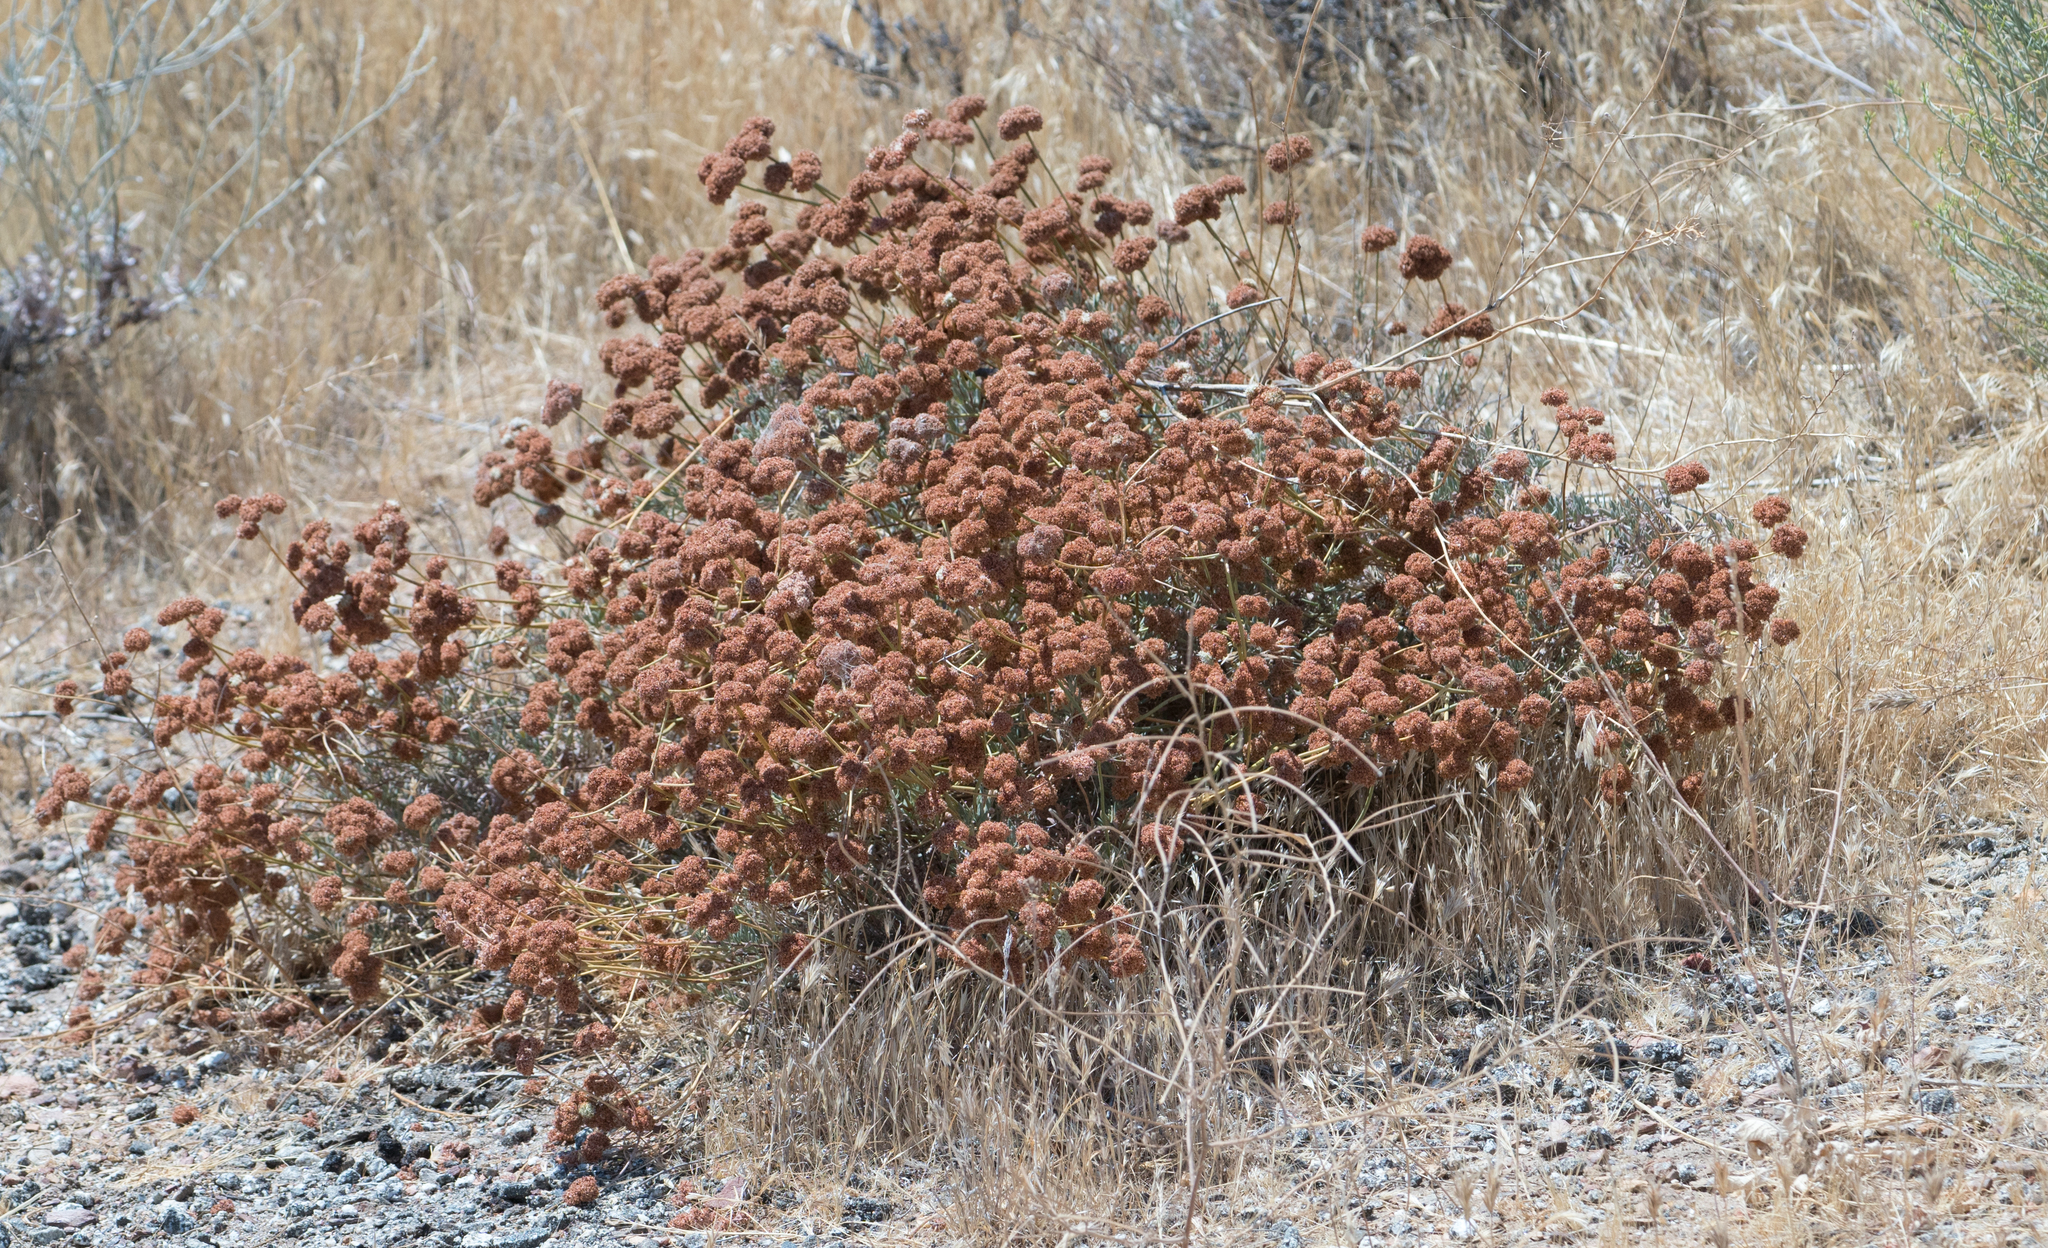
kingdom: Plantae
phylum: Tracheophyta
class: Magnoliopsida
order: Caryophyllales
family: Polygonaceae
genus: Eriogonum
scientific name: Eriogonum fasciculatum
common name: California wild buckwheat
